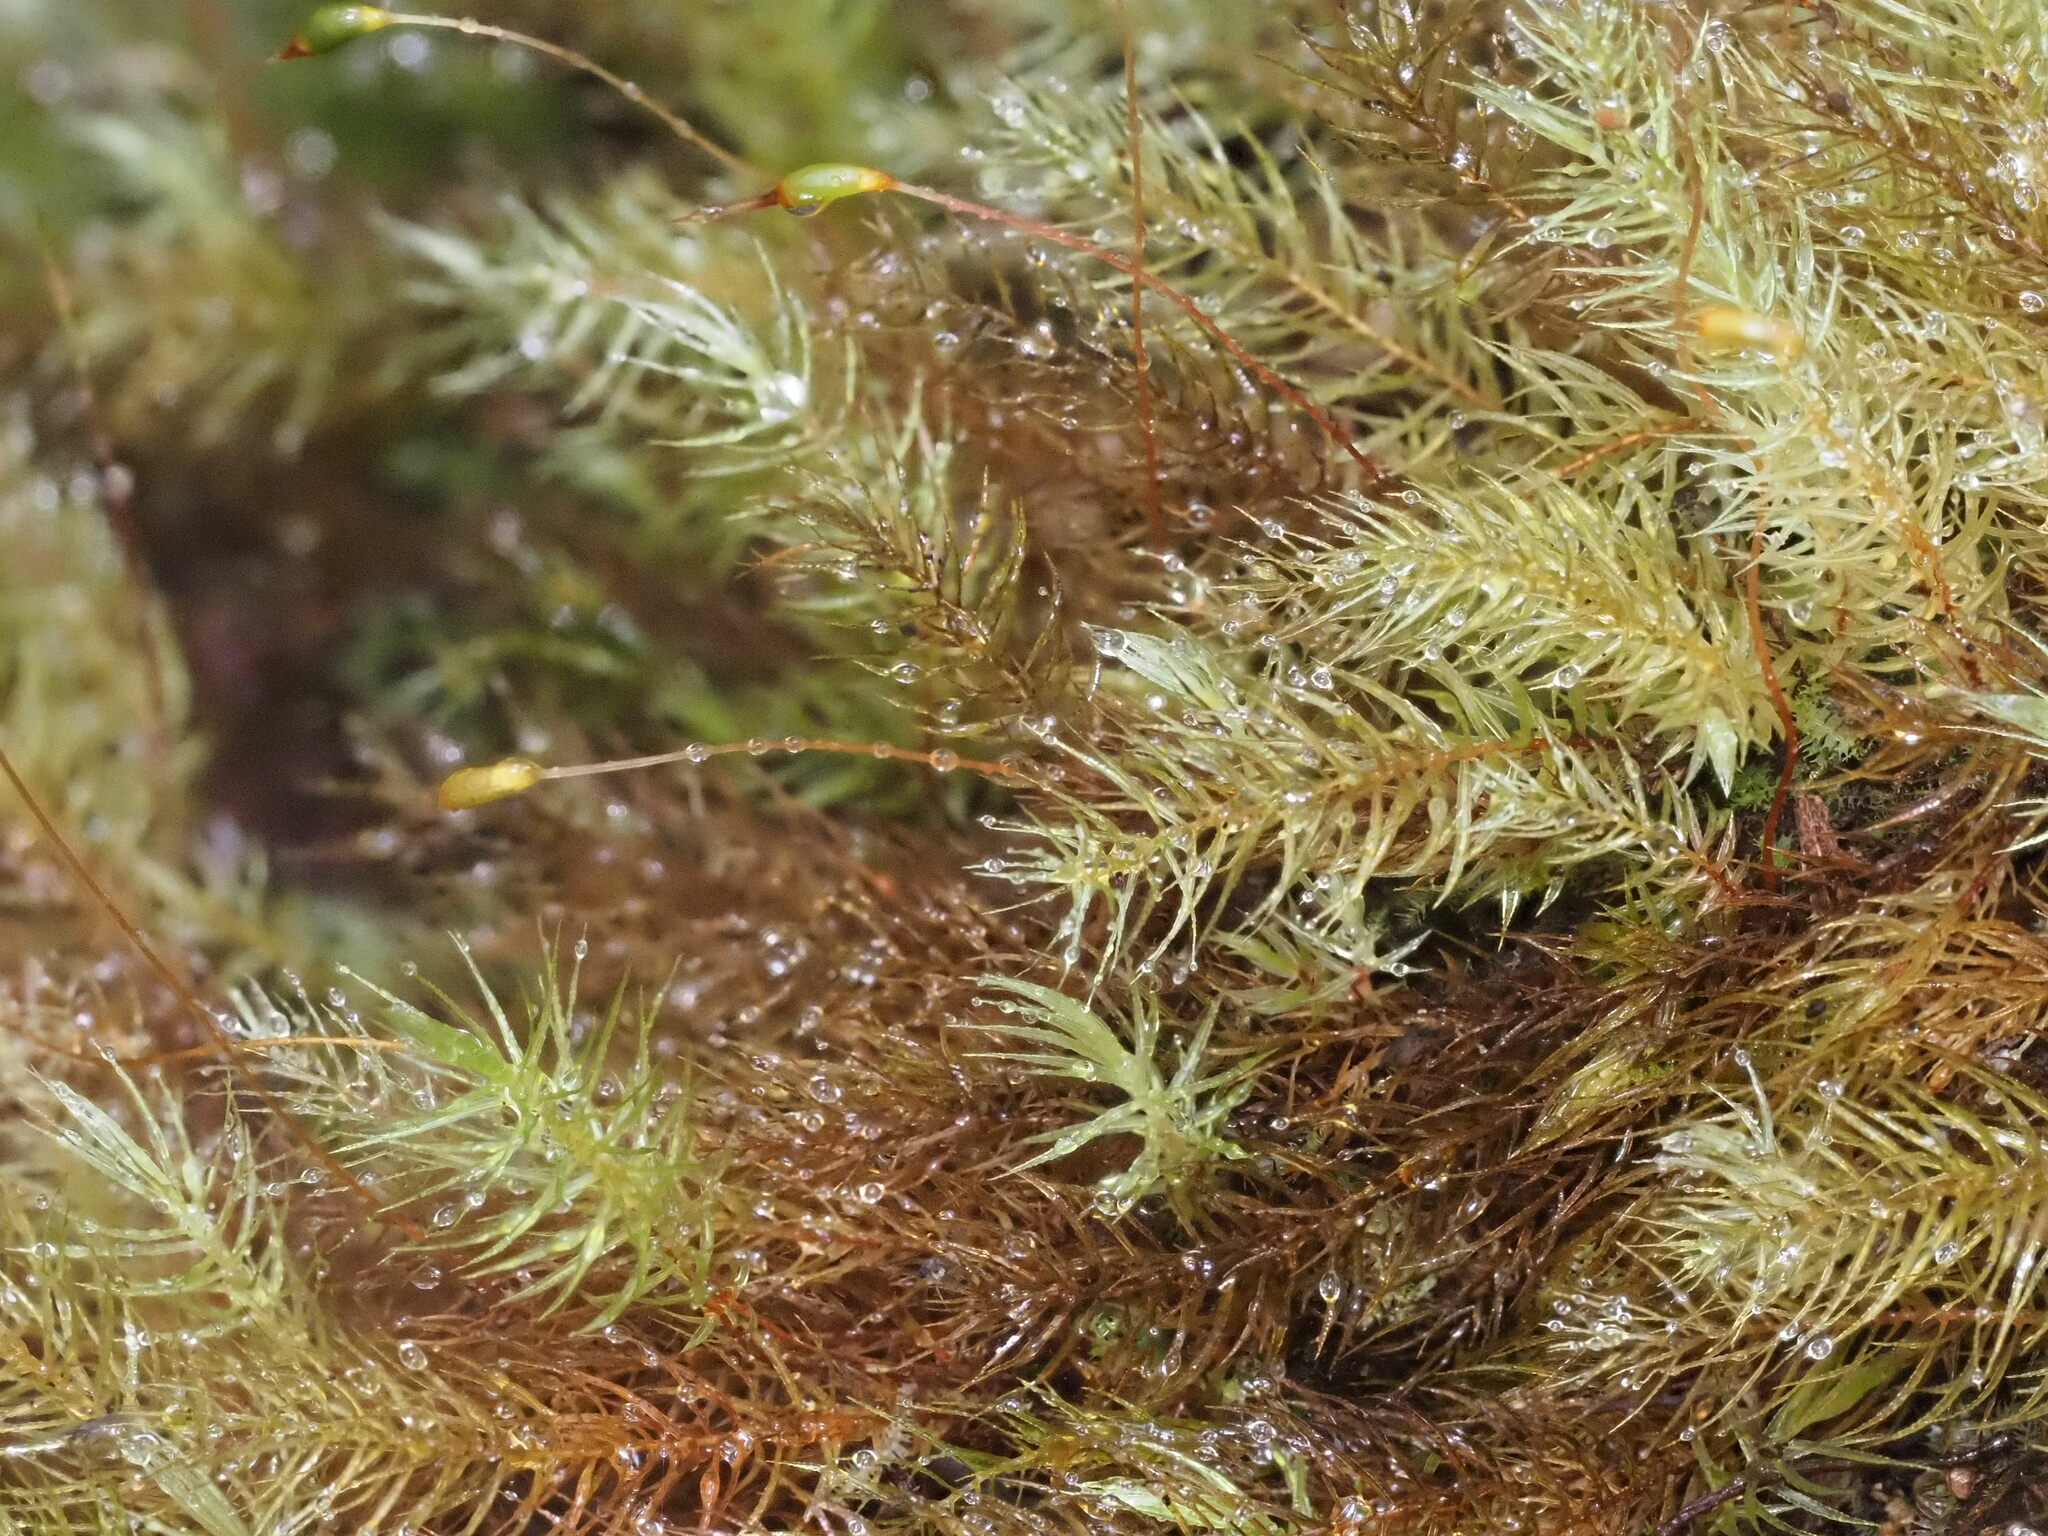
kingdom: Plantae
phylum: Bryophyta
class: Bryopsida
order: Rhizogoniales
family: Calomniaceae
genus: Pyrrhobryum
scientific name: Pyrrhobryum spiniforme
